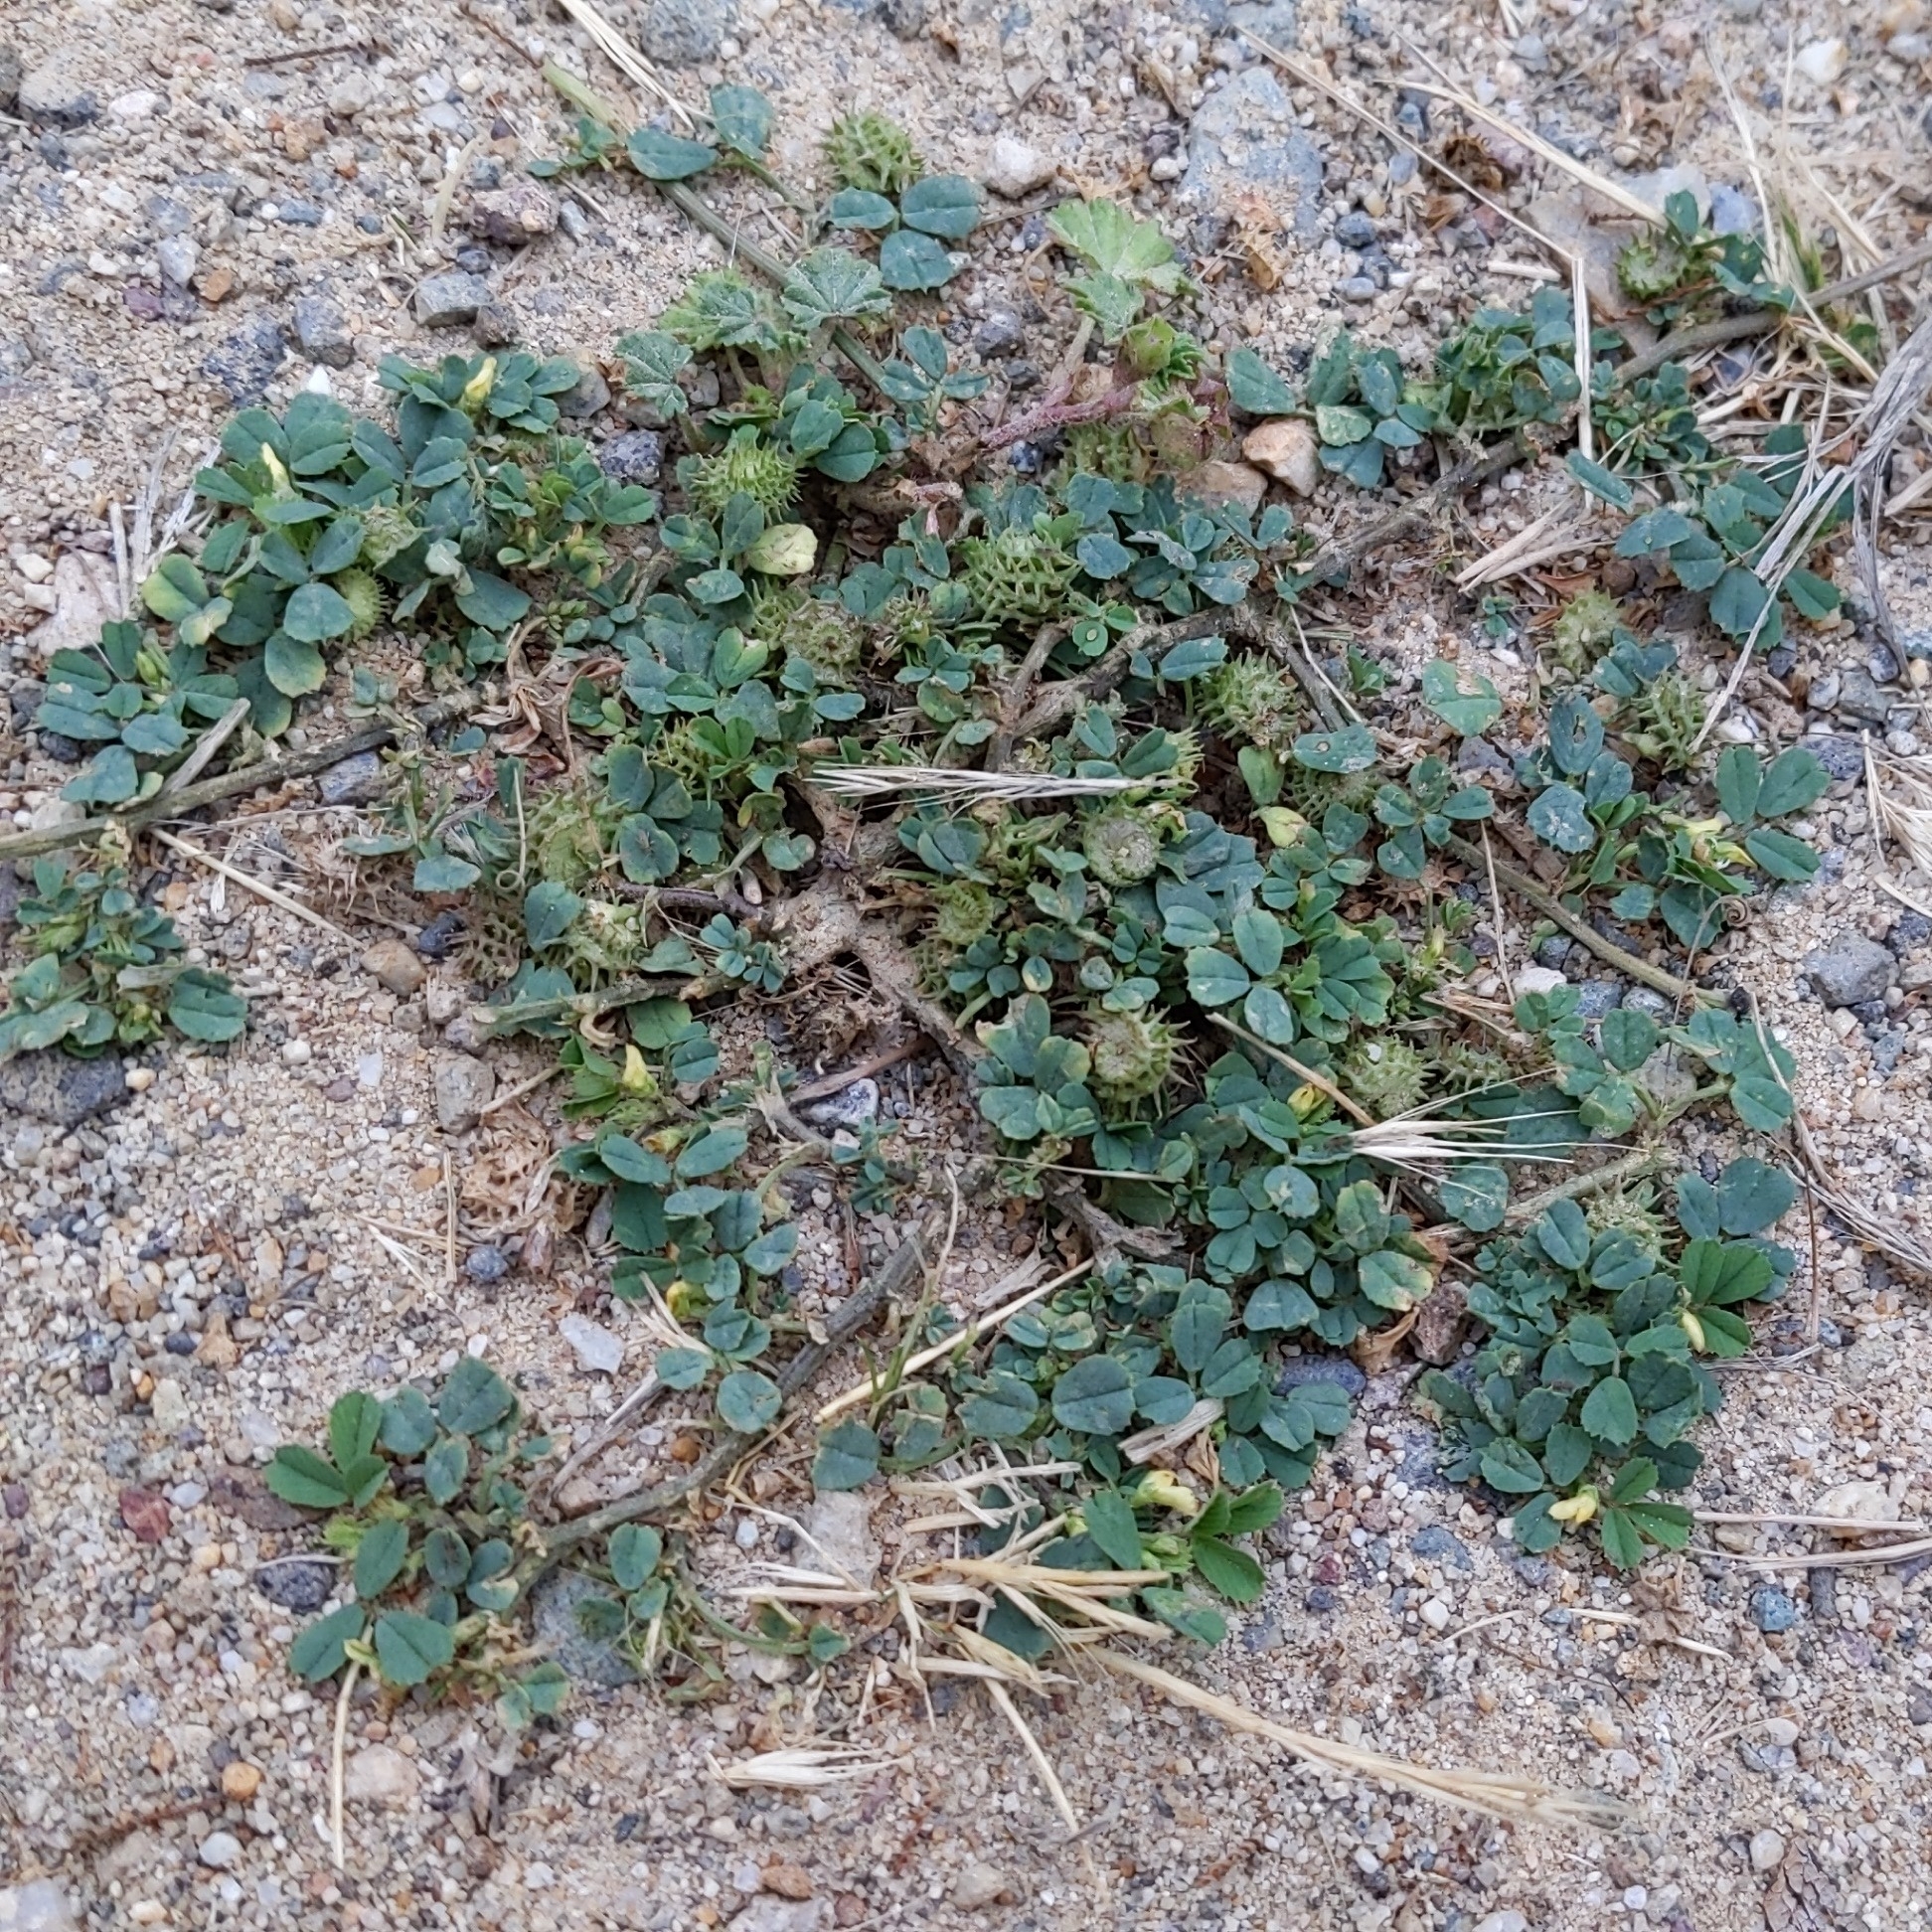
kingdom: Plantae
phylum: Tracheophyta
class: Magnoliopsida
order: Fabales
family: Fabaceae
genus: Medicago
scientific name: Medicago polymorpha
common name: Burclover
